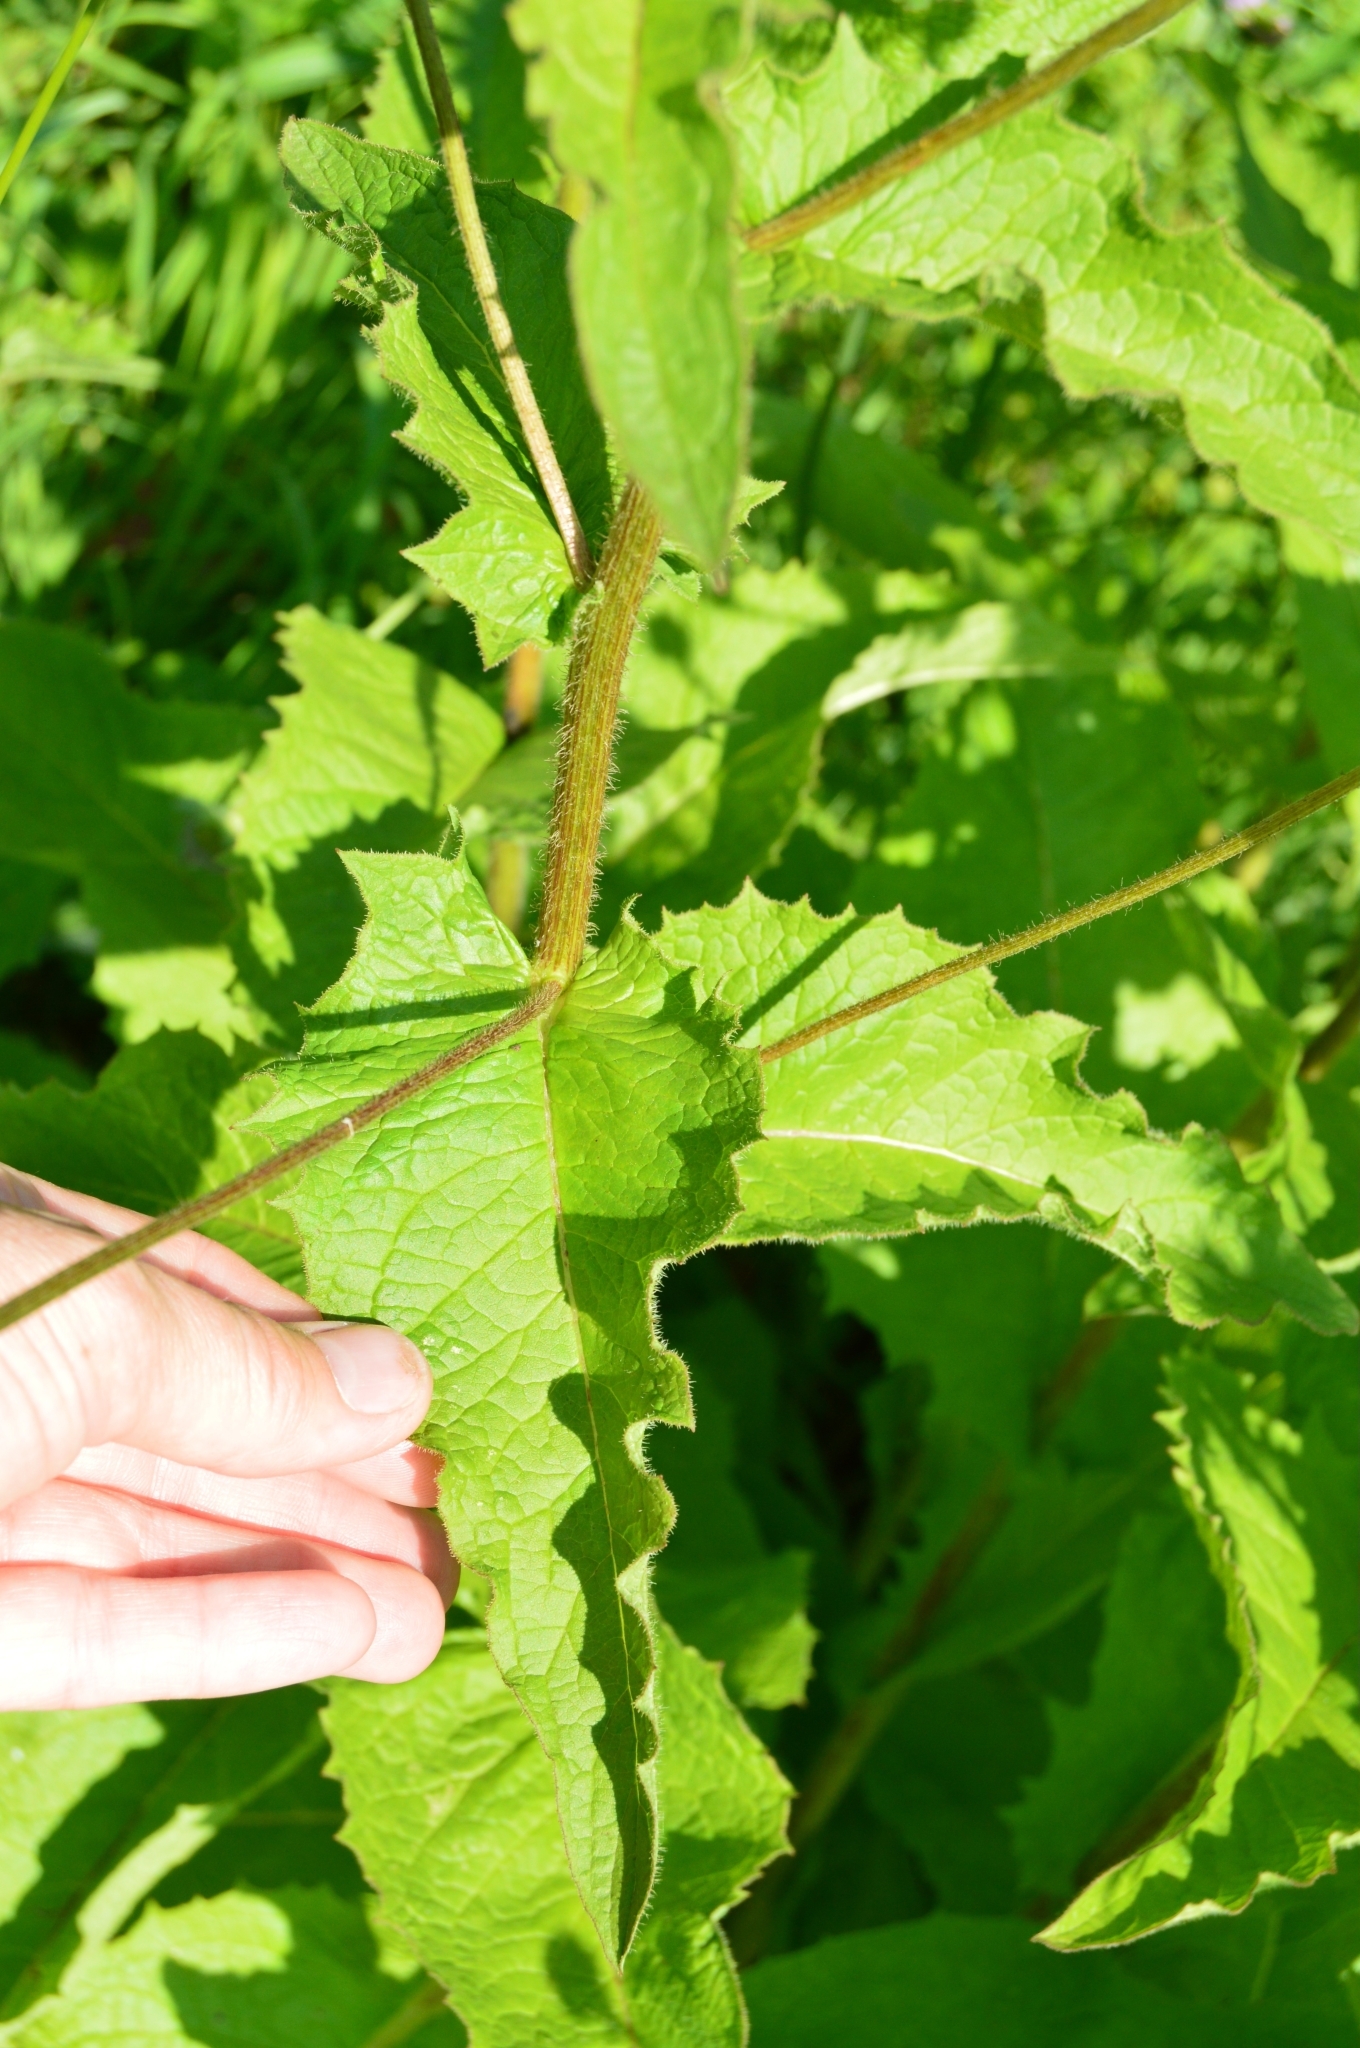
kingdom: Plantae
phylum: Tracheophyta
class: Magnoliopsida
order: Asterales
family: Asteraceae
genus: Crepis
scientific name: Crepis sibirica
